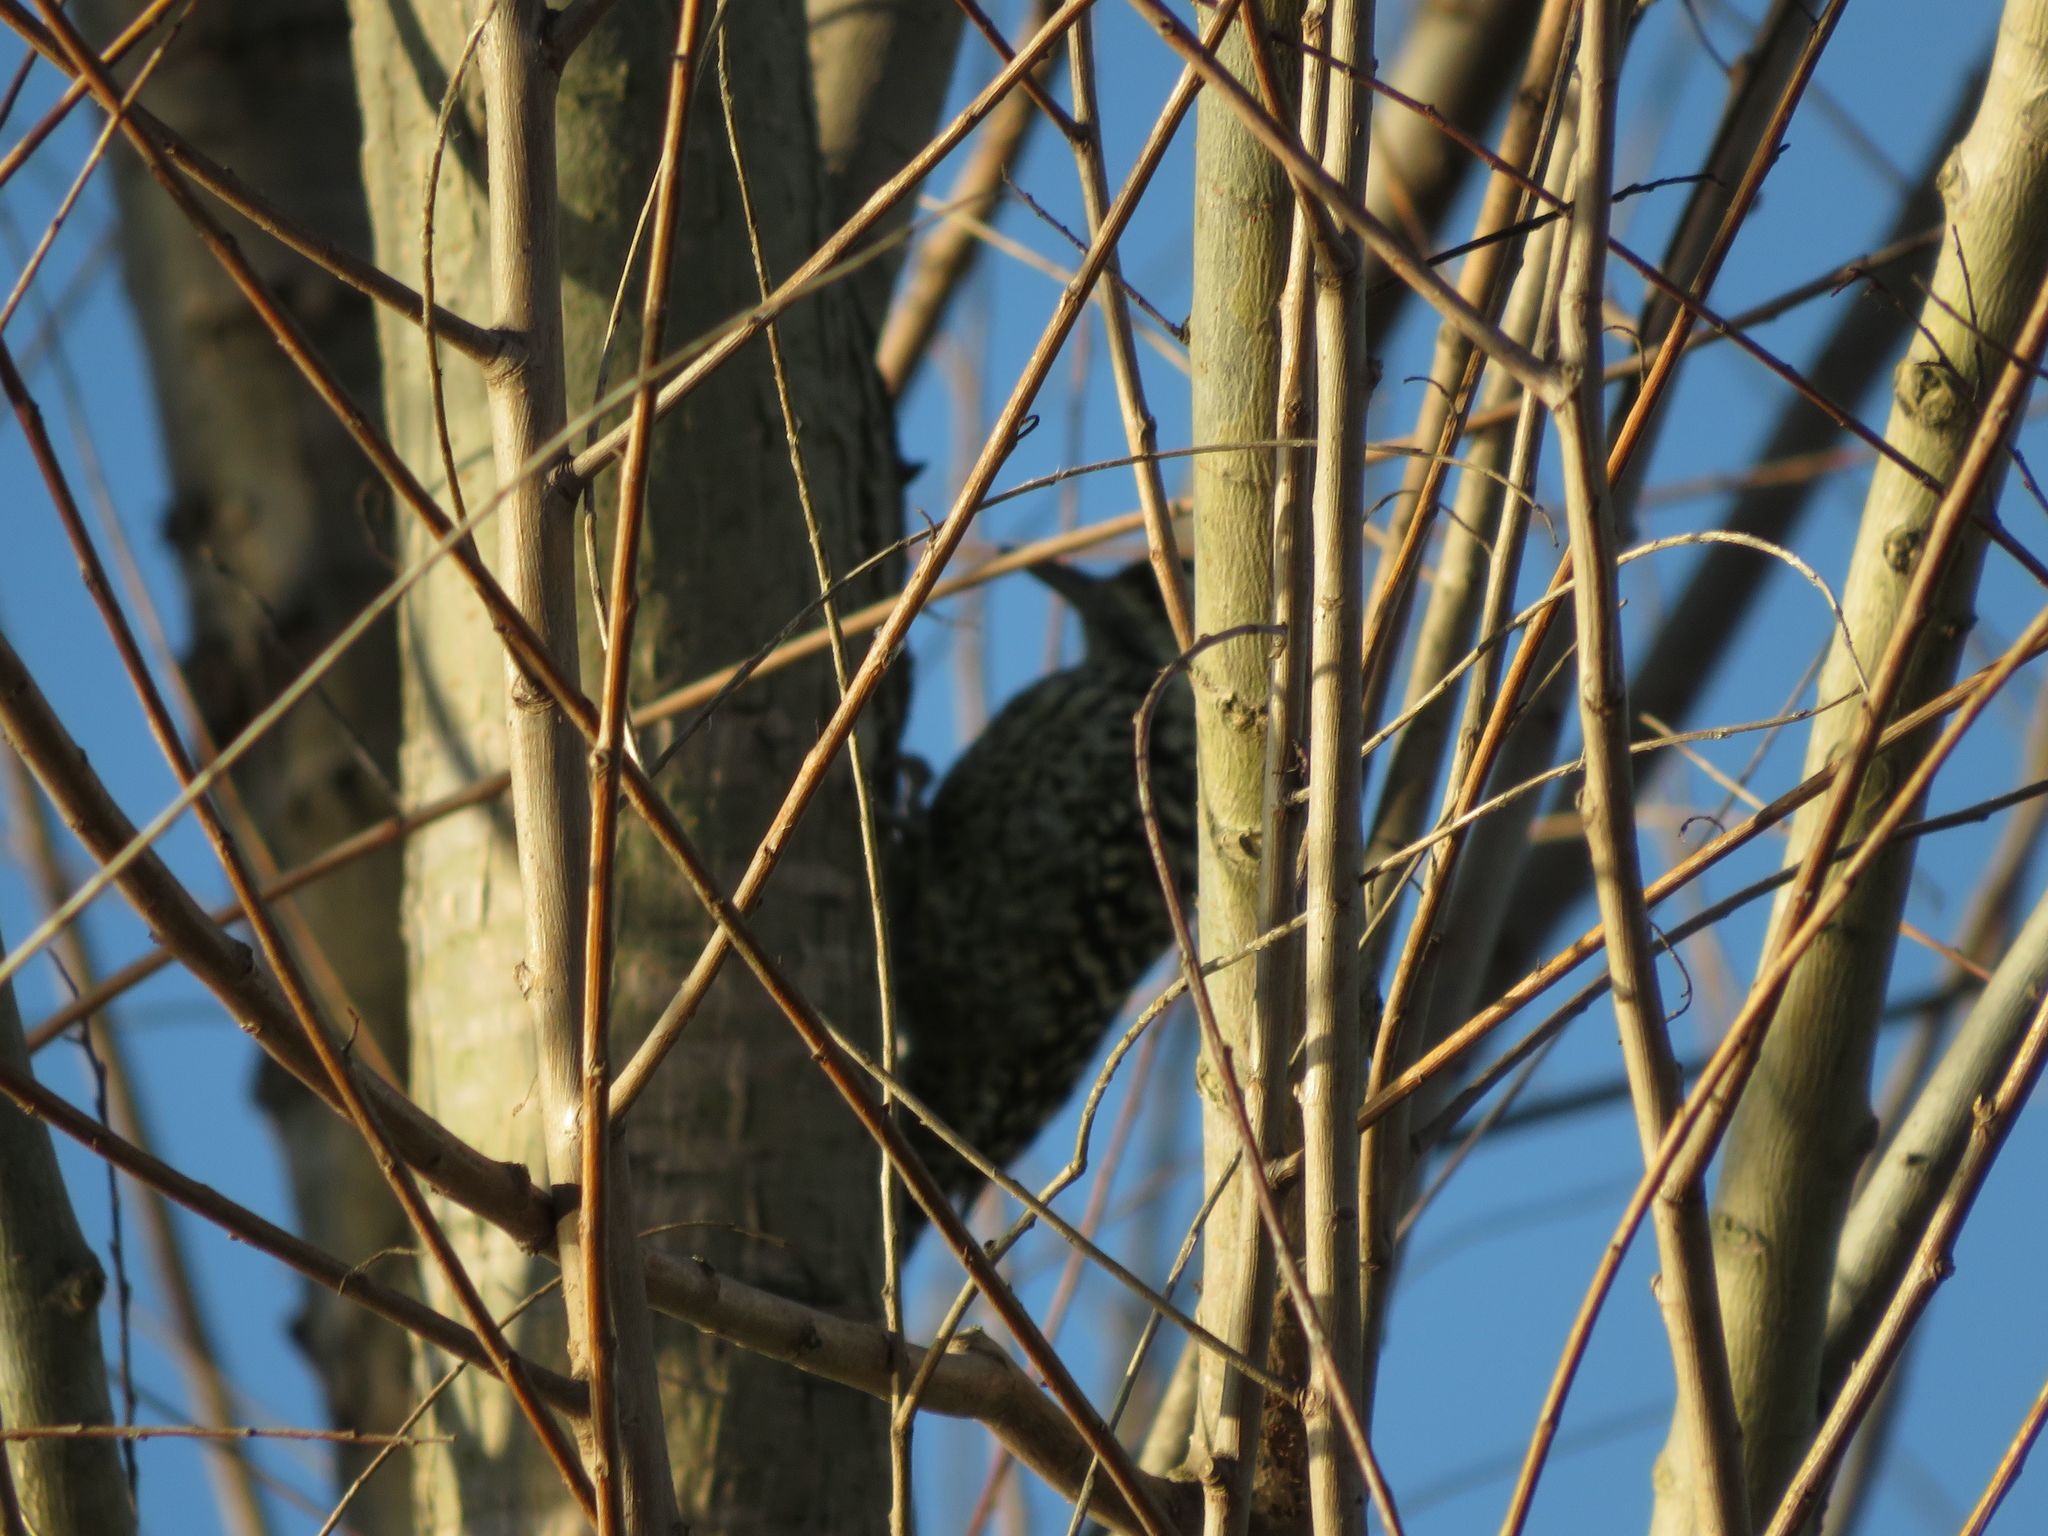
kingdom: Animalia
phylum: Chordata
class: Aves
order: Piciformes
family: Picidae
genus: Veniliornis
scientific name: Veniliornis mixtus
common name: Checkered woodpecker
